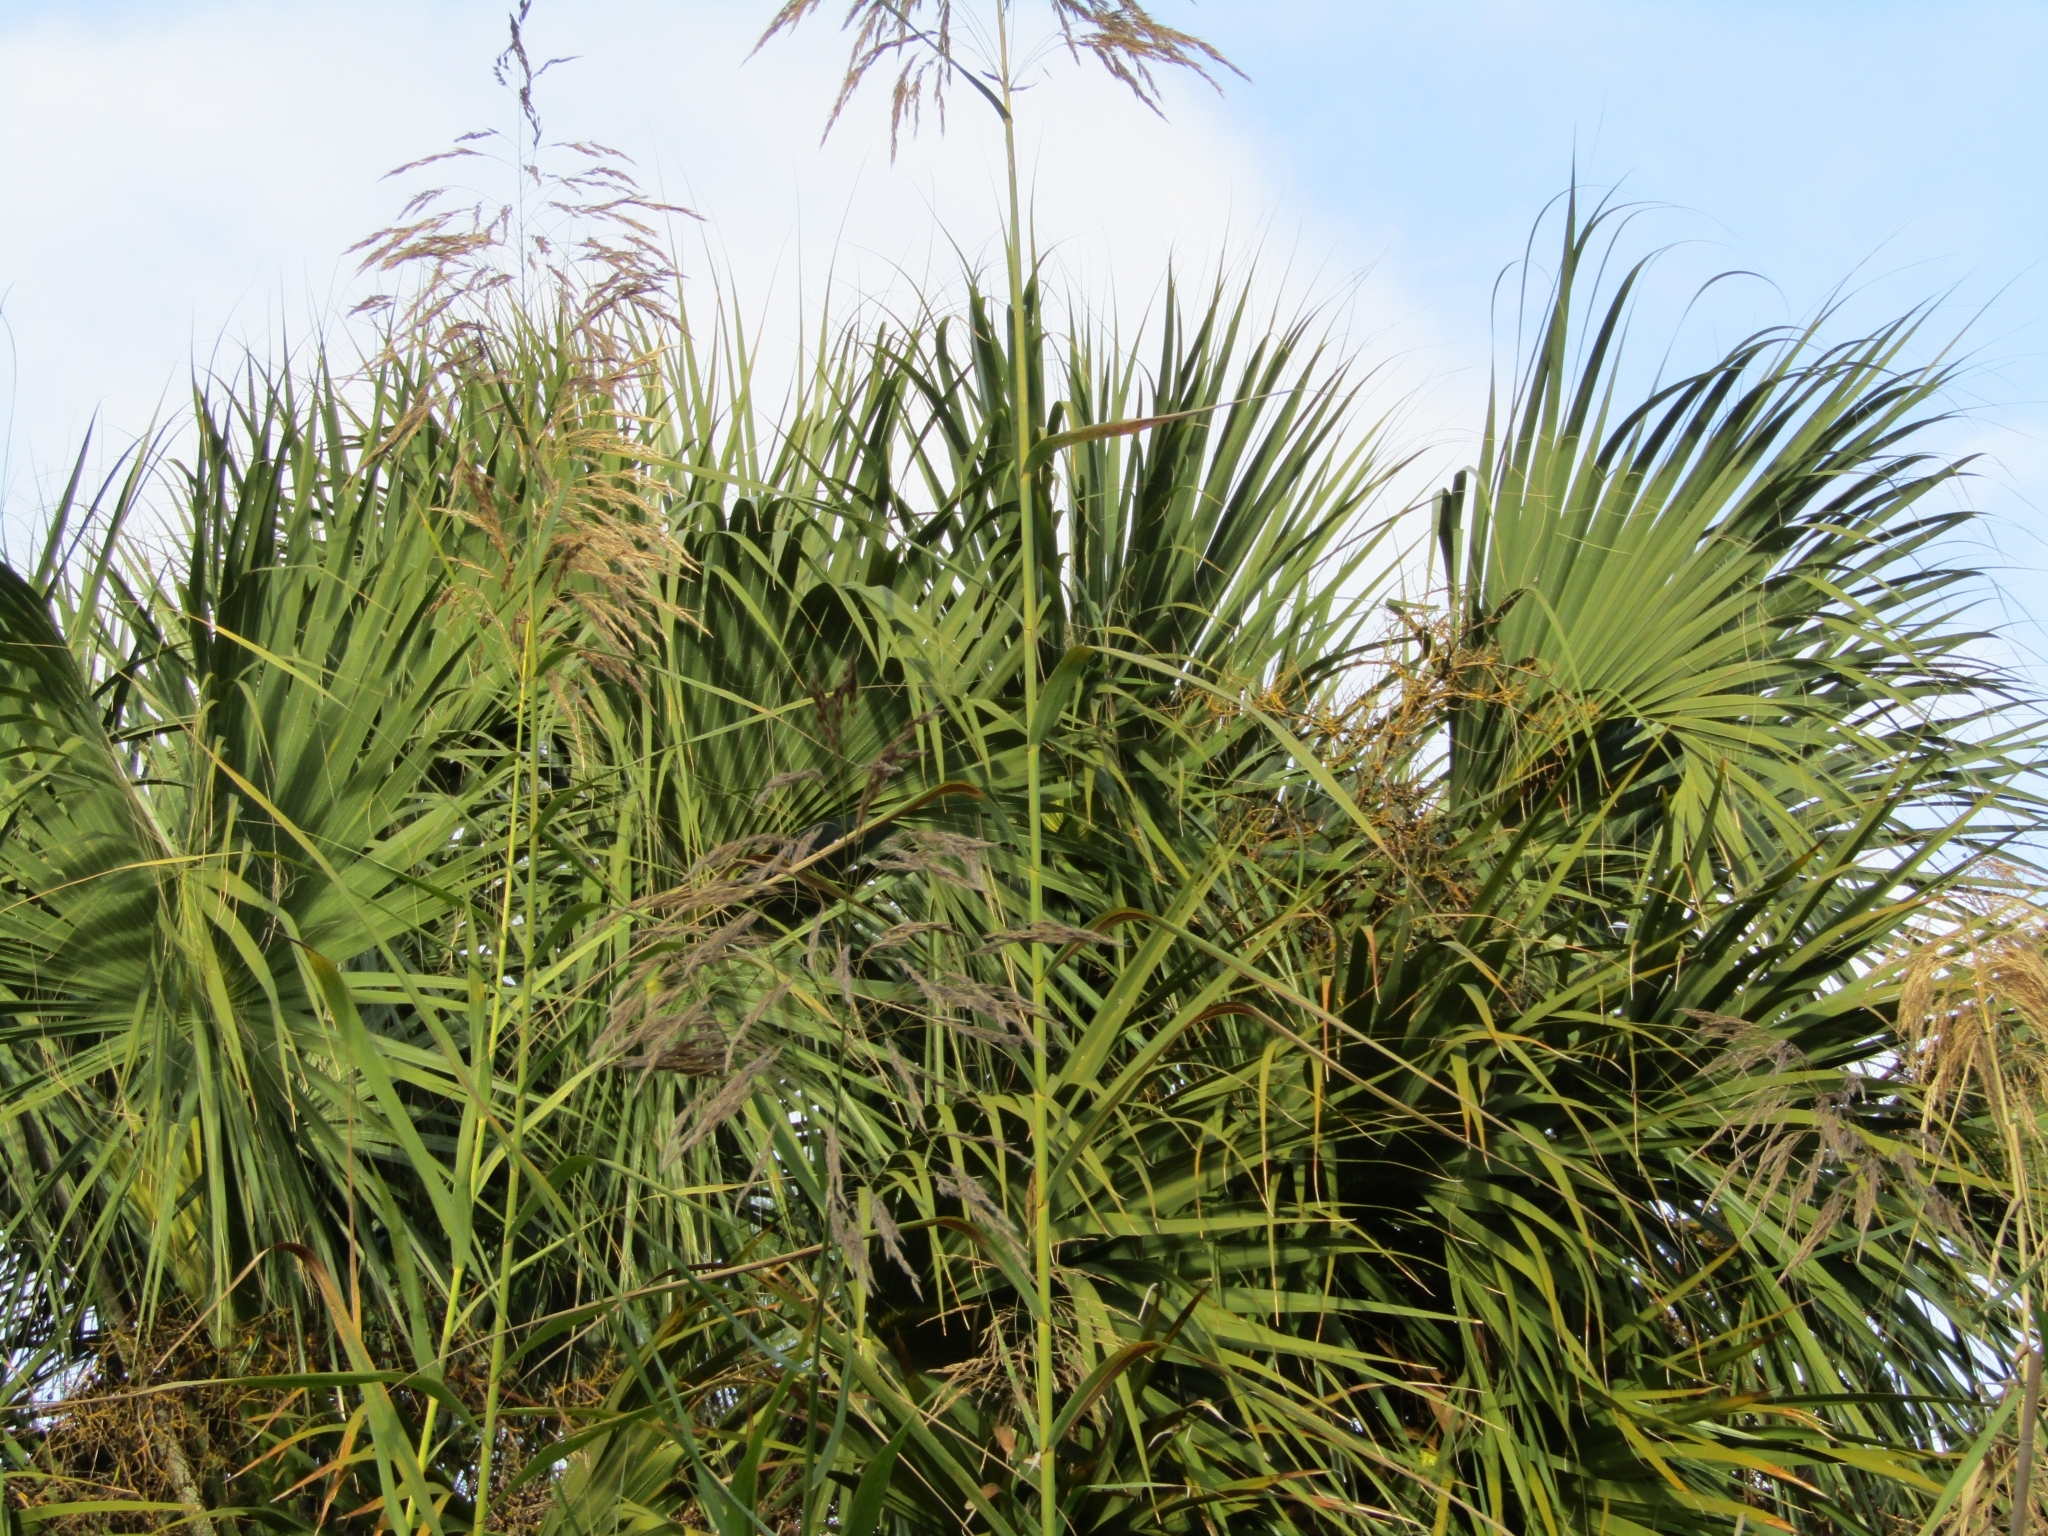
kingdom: Plantae
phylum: Tracheophyta
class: Liliopsida
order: Arecales
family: Arecaceae
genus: Sabal
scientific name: Sabal palmetto
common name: Blue palmetto
